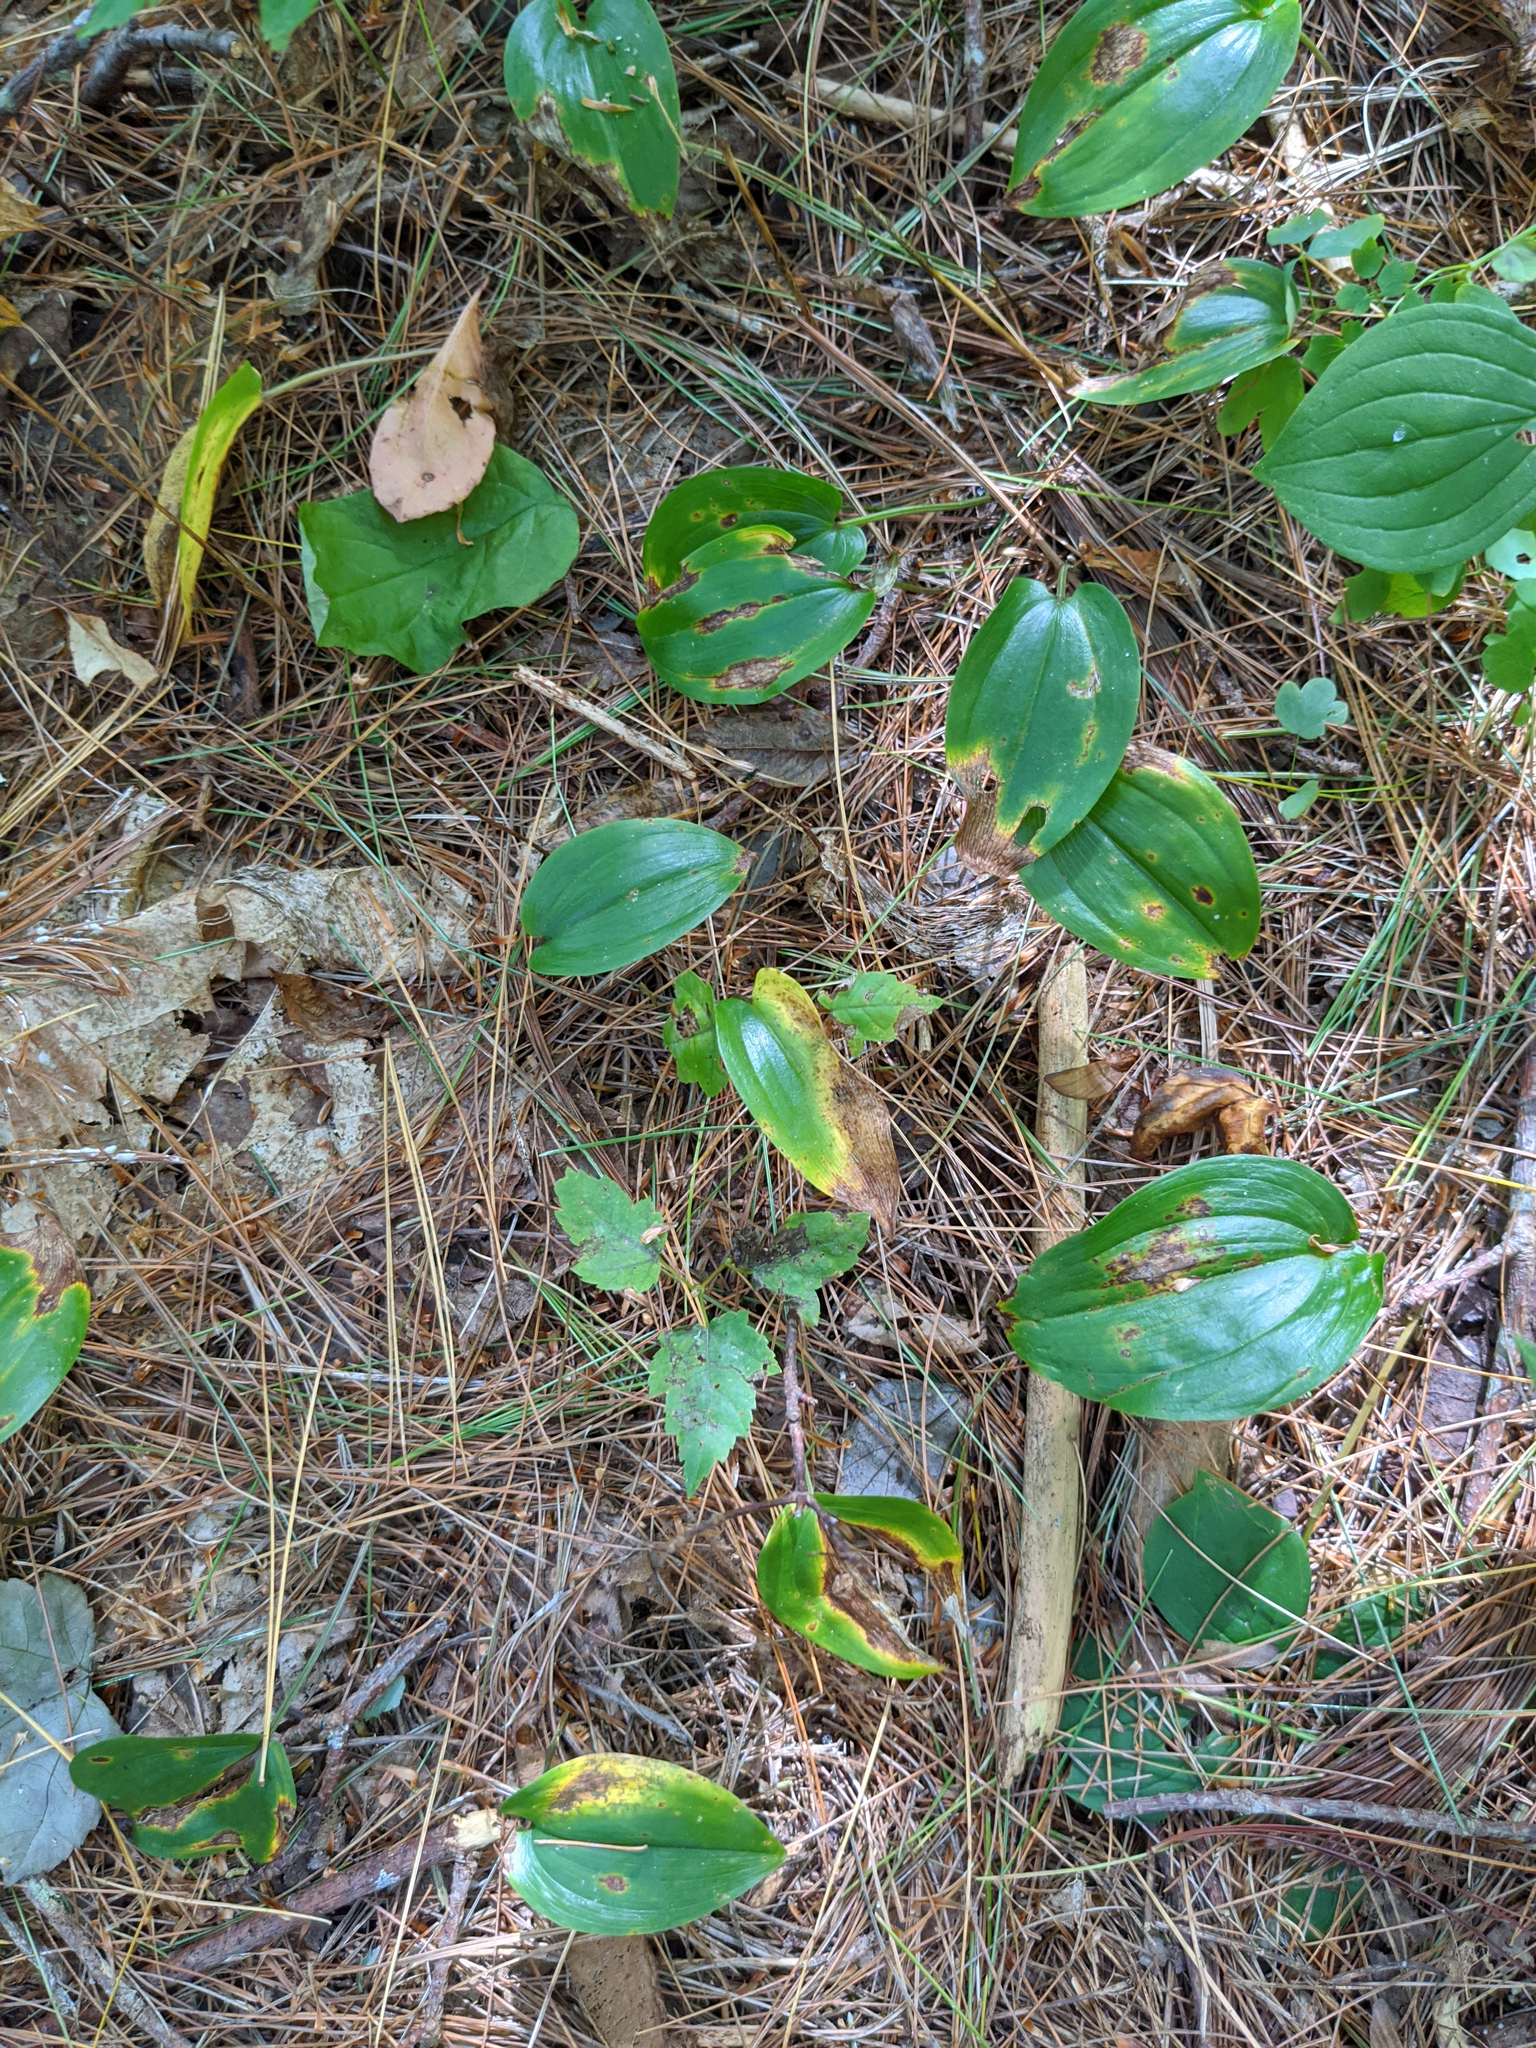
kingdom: Plantae
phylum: Tracheophyta
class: Liliopsida
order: Asparagales
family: Asparagaceae
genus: Maianthemum
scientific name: Maianthemum canadense
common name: False lily-of-the-valley
